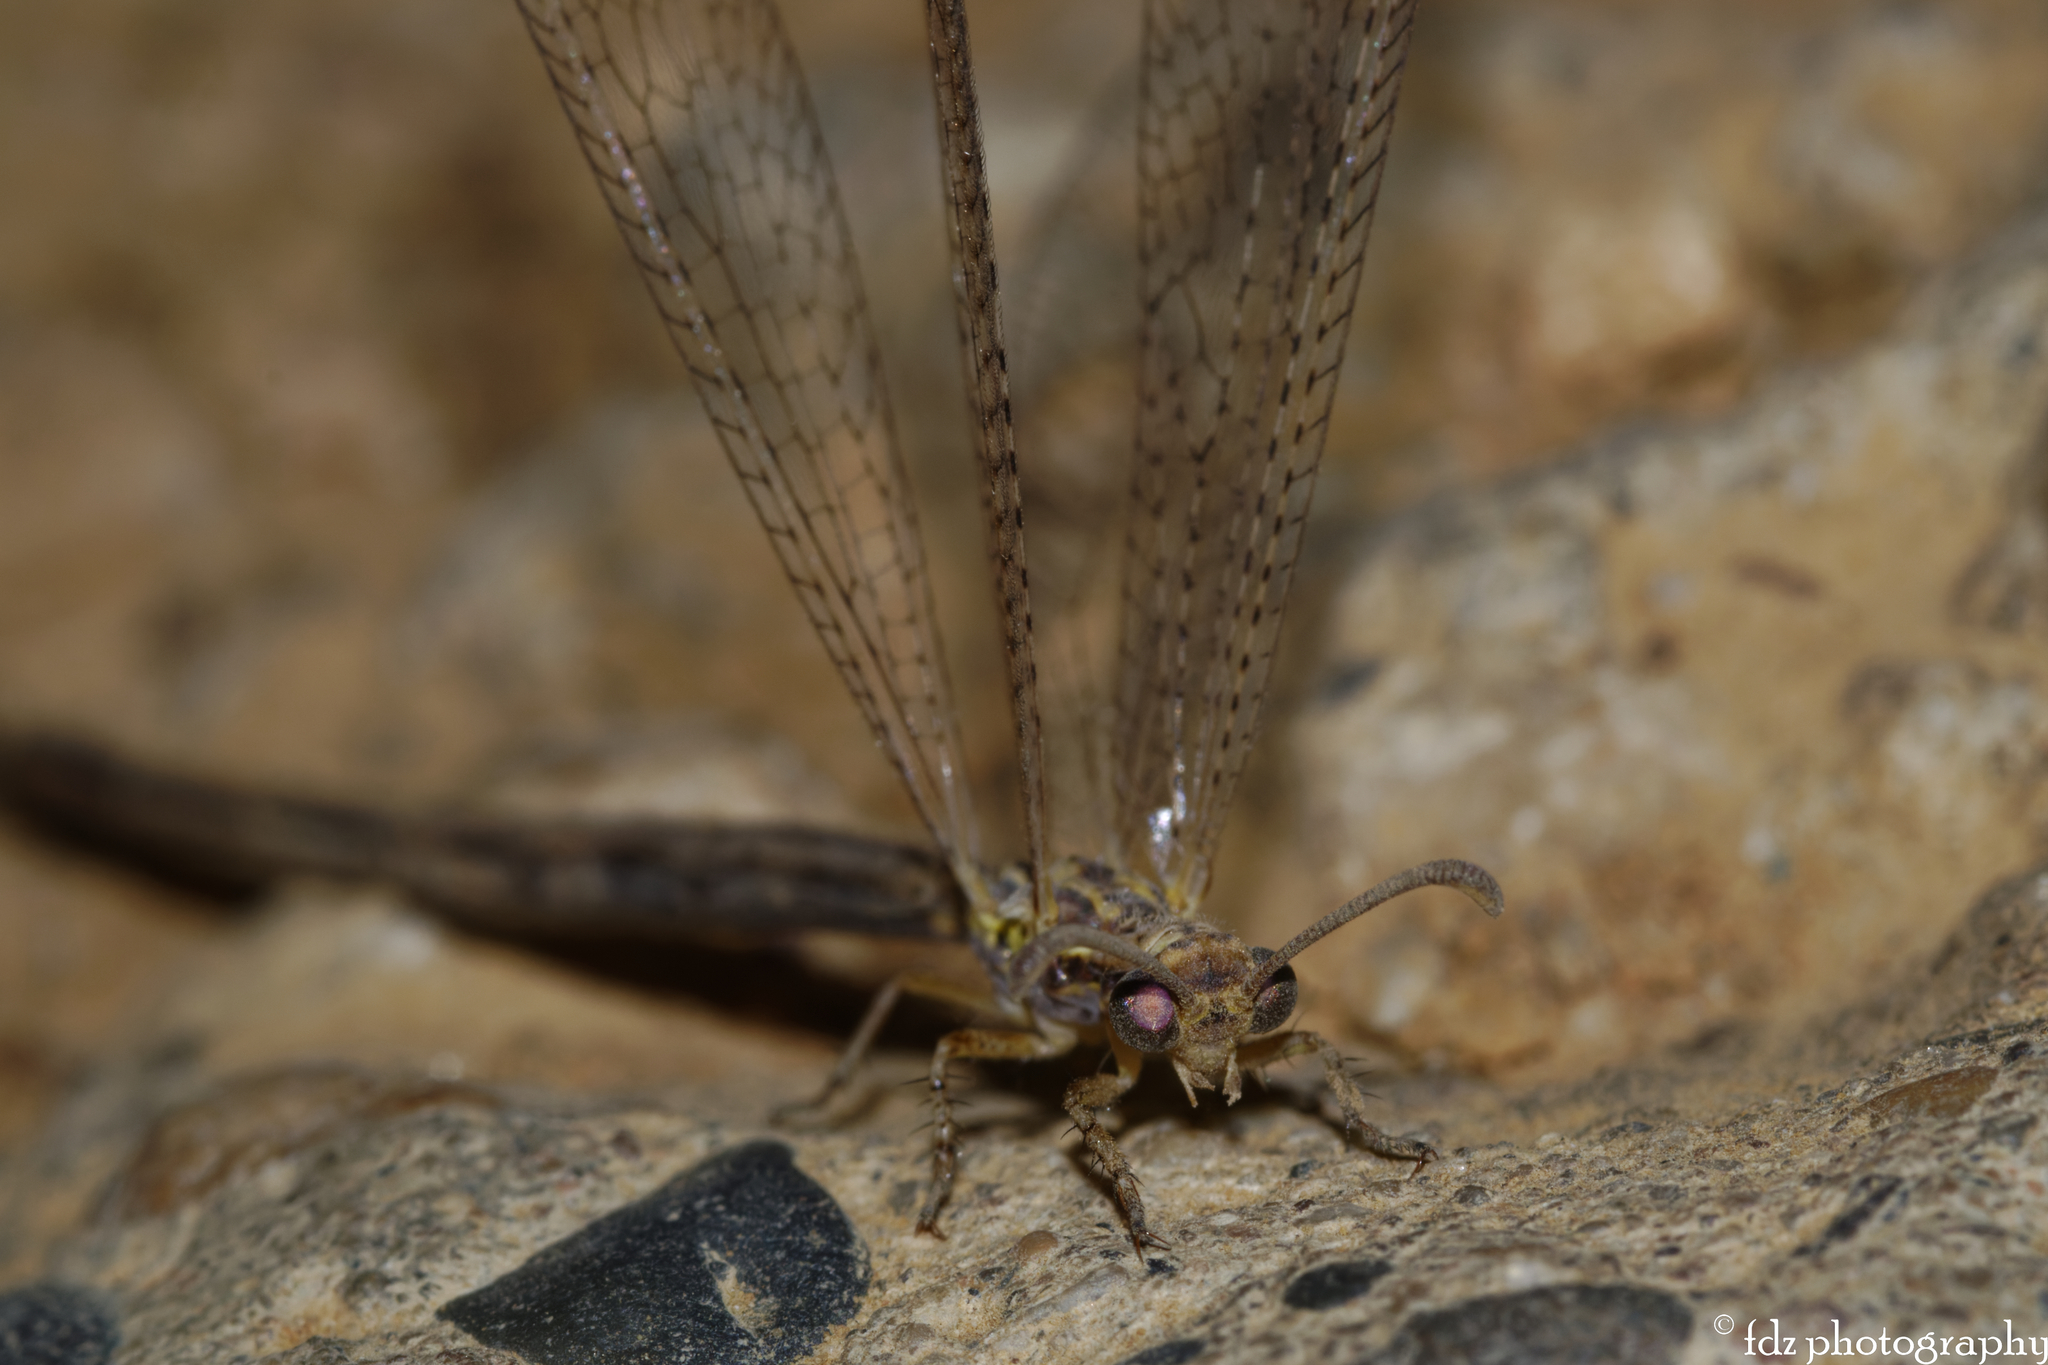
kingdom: Animalia
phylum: Arthropoda
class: Insecta
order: Neuroptera
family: Myrmeleontidae
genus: Macronemurus
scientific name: Macronemurus appendiculatus
